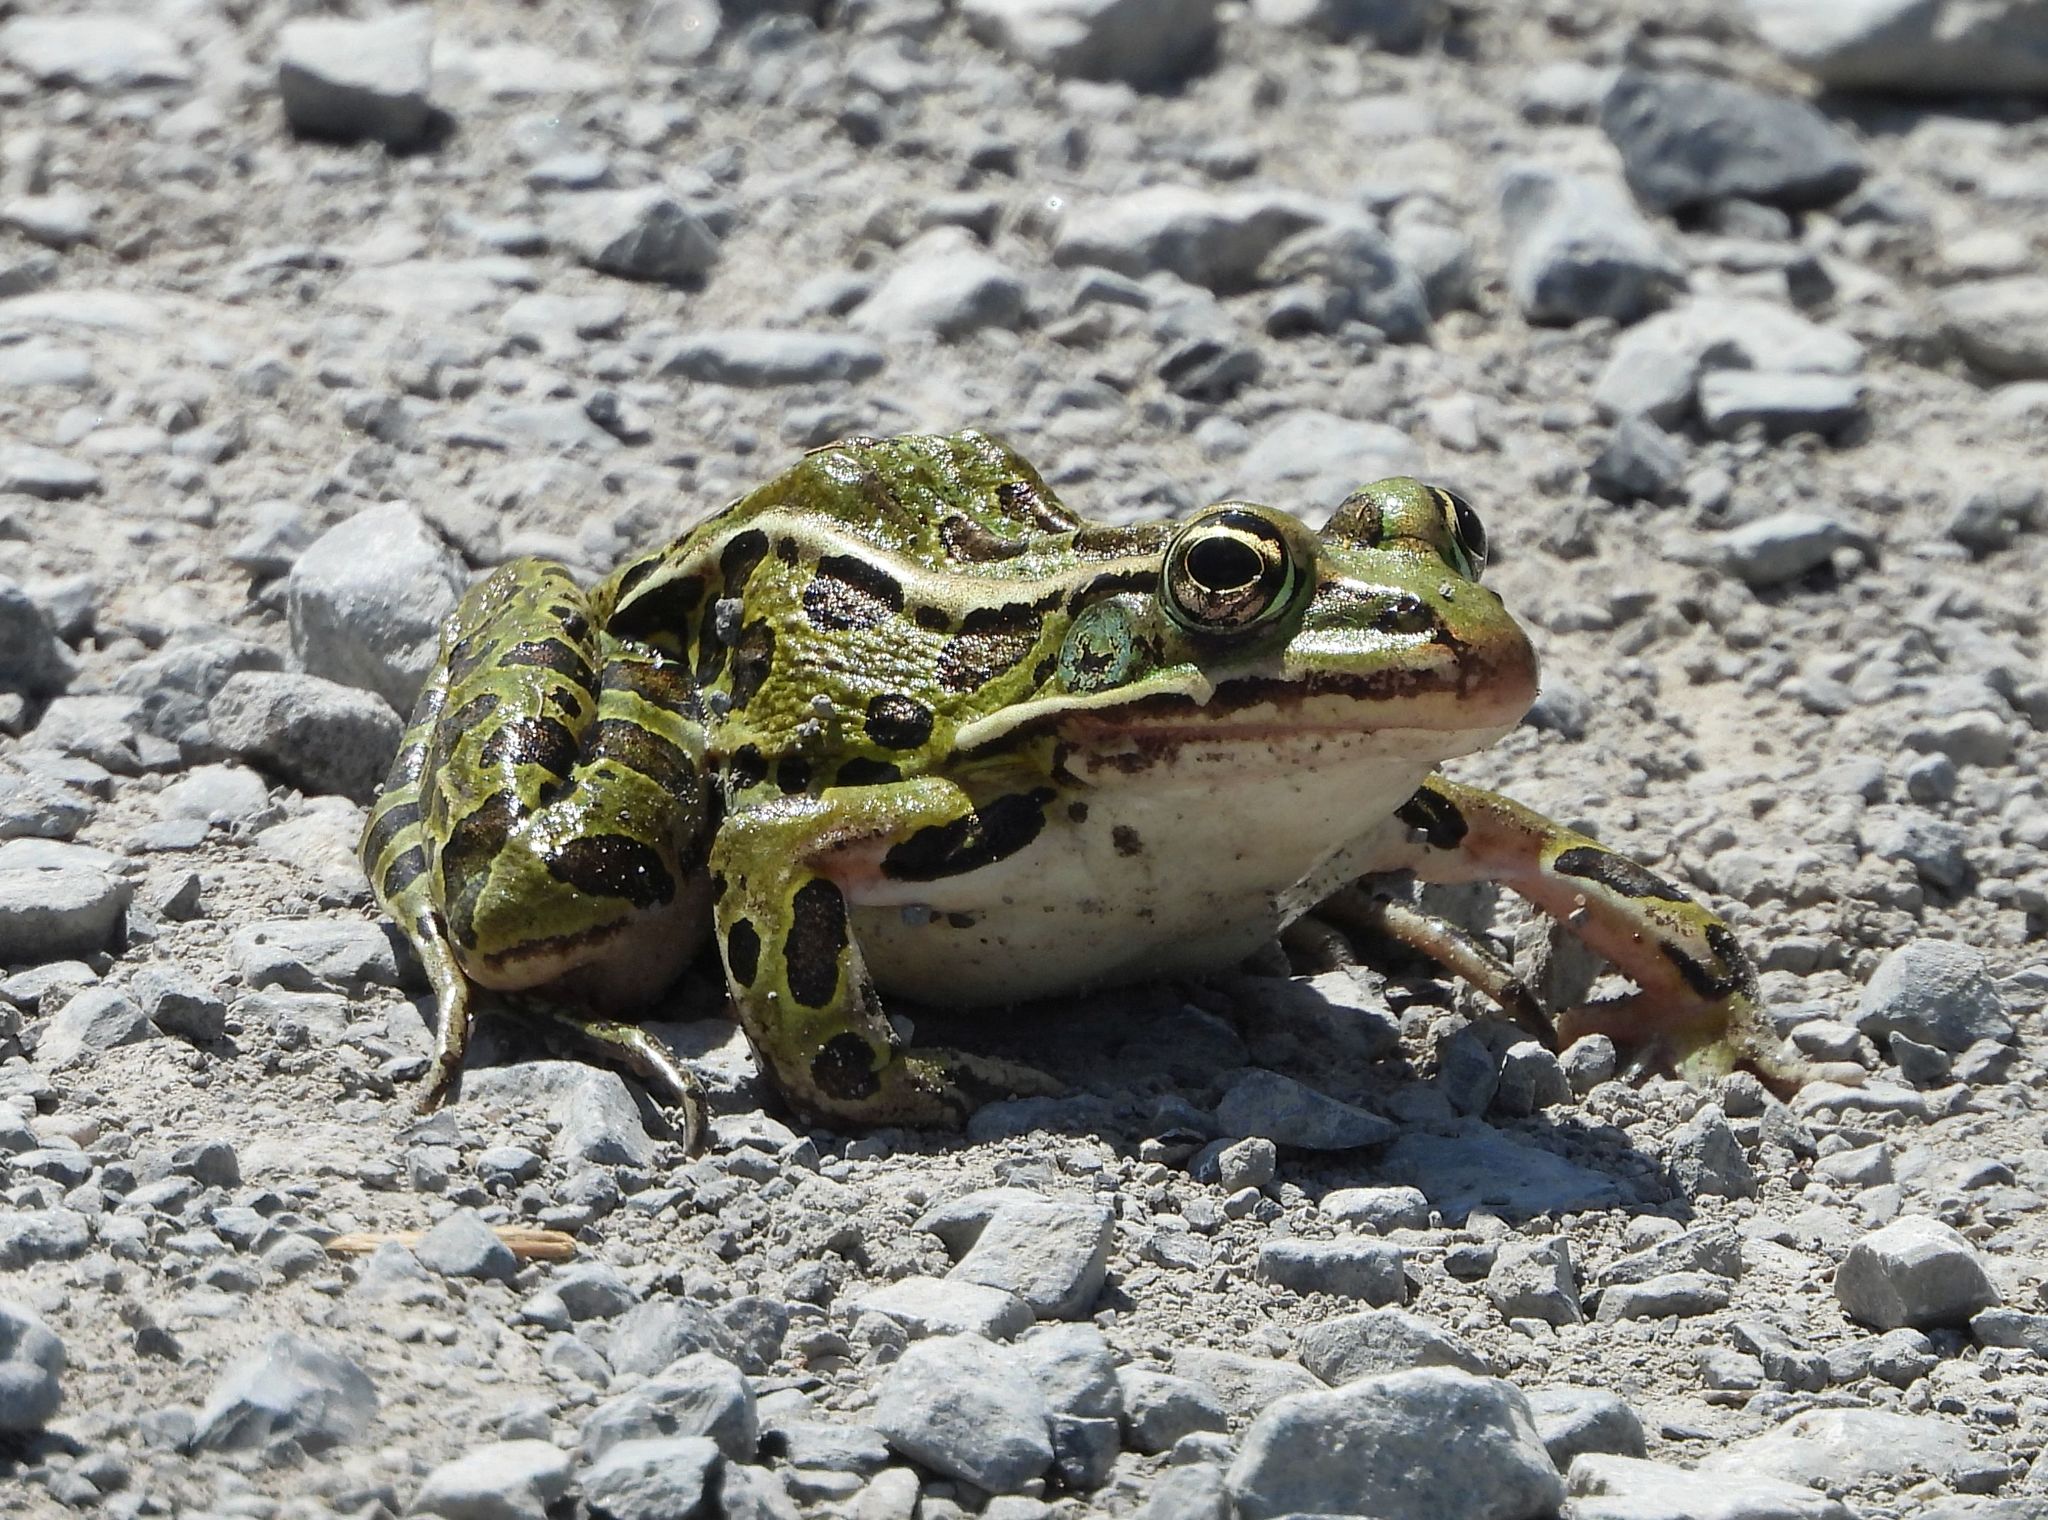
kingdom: Animalia
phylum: Chordata
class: Amphibia
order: Anura
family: Ranidae
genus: Lithobates
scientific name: Lithobates pipiens
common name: Northern leopard frog
